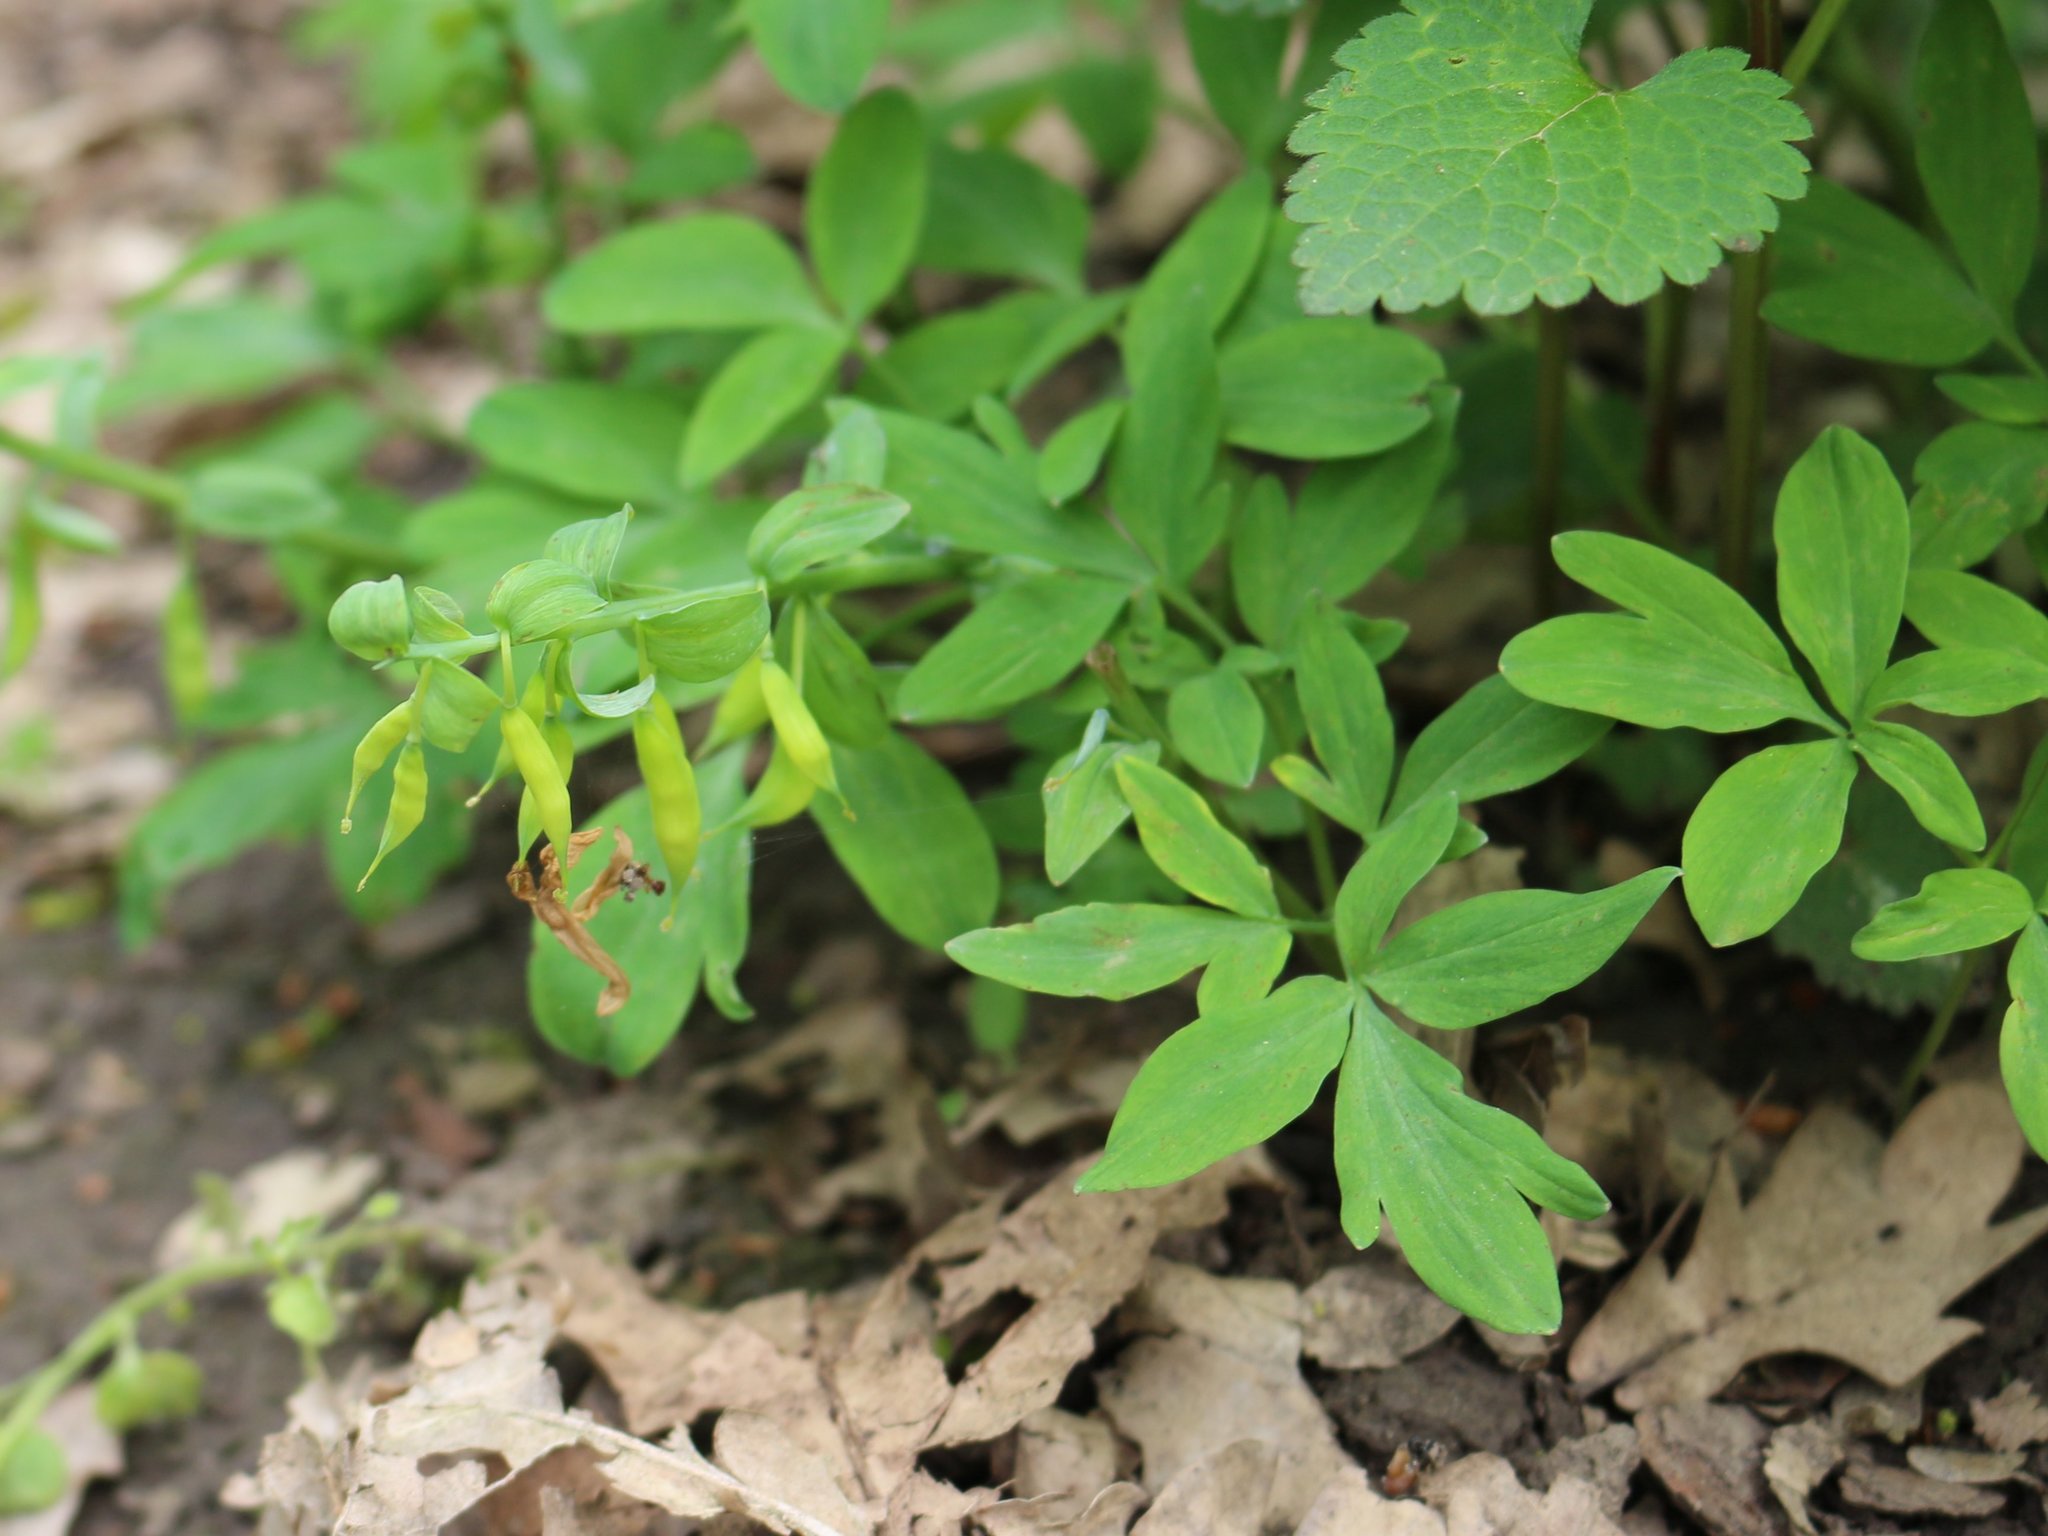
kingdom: Plantae
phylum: Tracheophyta
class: Magnoliopsida
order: Ranunculales
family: Papaveraceae
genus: Corydalis
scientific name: Corydalis cava
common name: Hollowroot
